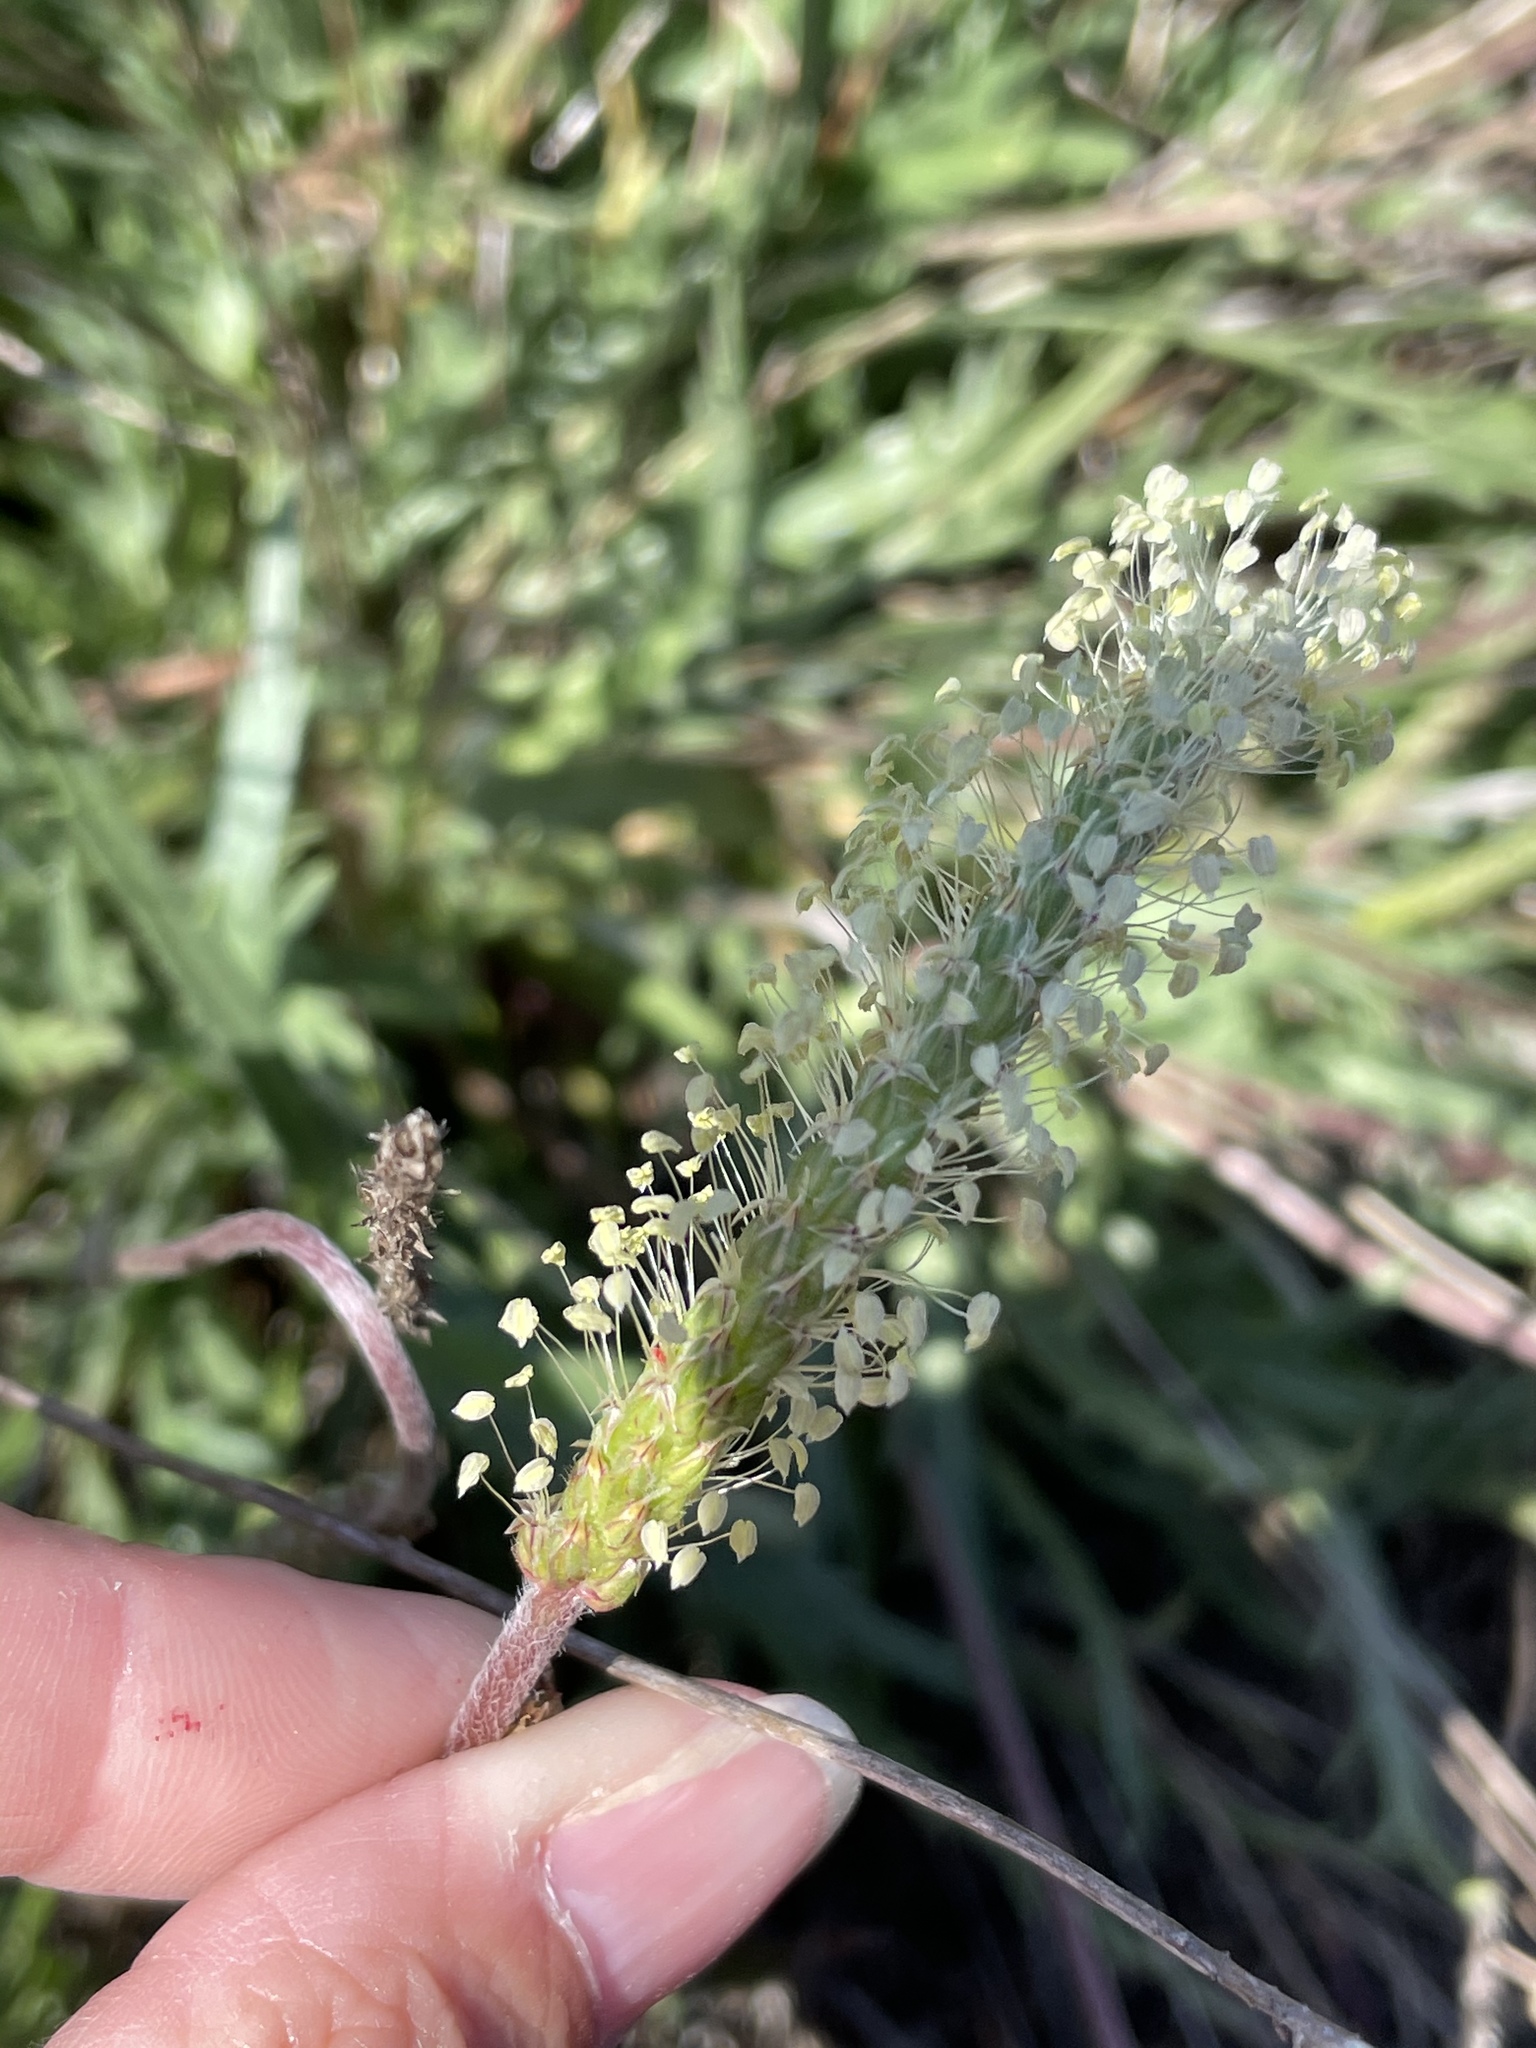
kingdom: Plantae
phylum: Tracheophyta
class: Magnoliopsida
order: Lamiales
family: Plantaginaceae
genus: Plantago
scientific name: Plantago coronopus
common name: Buck's-horn plantain
